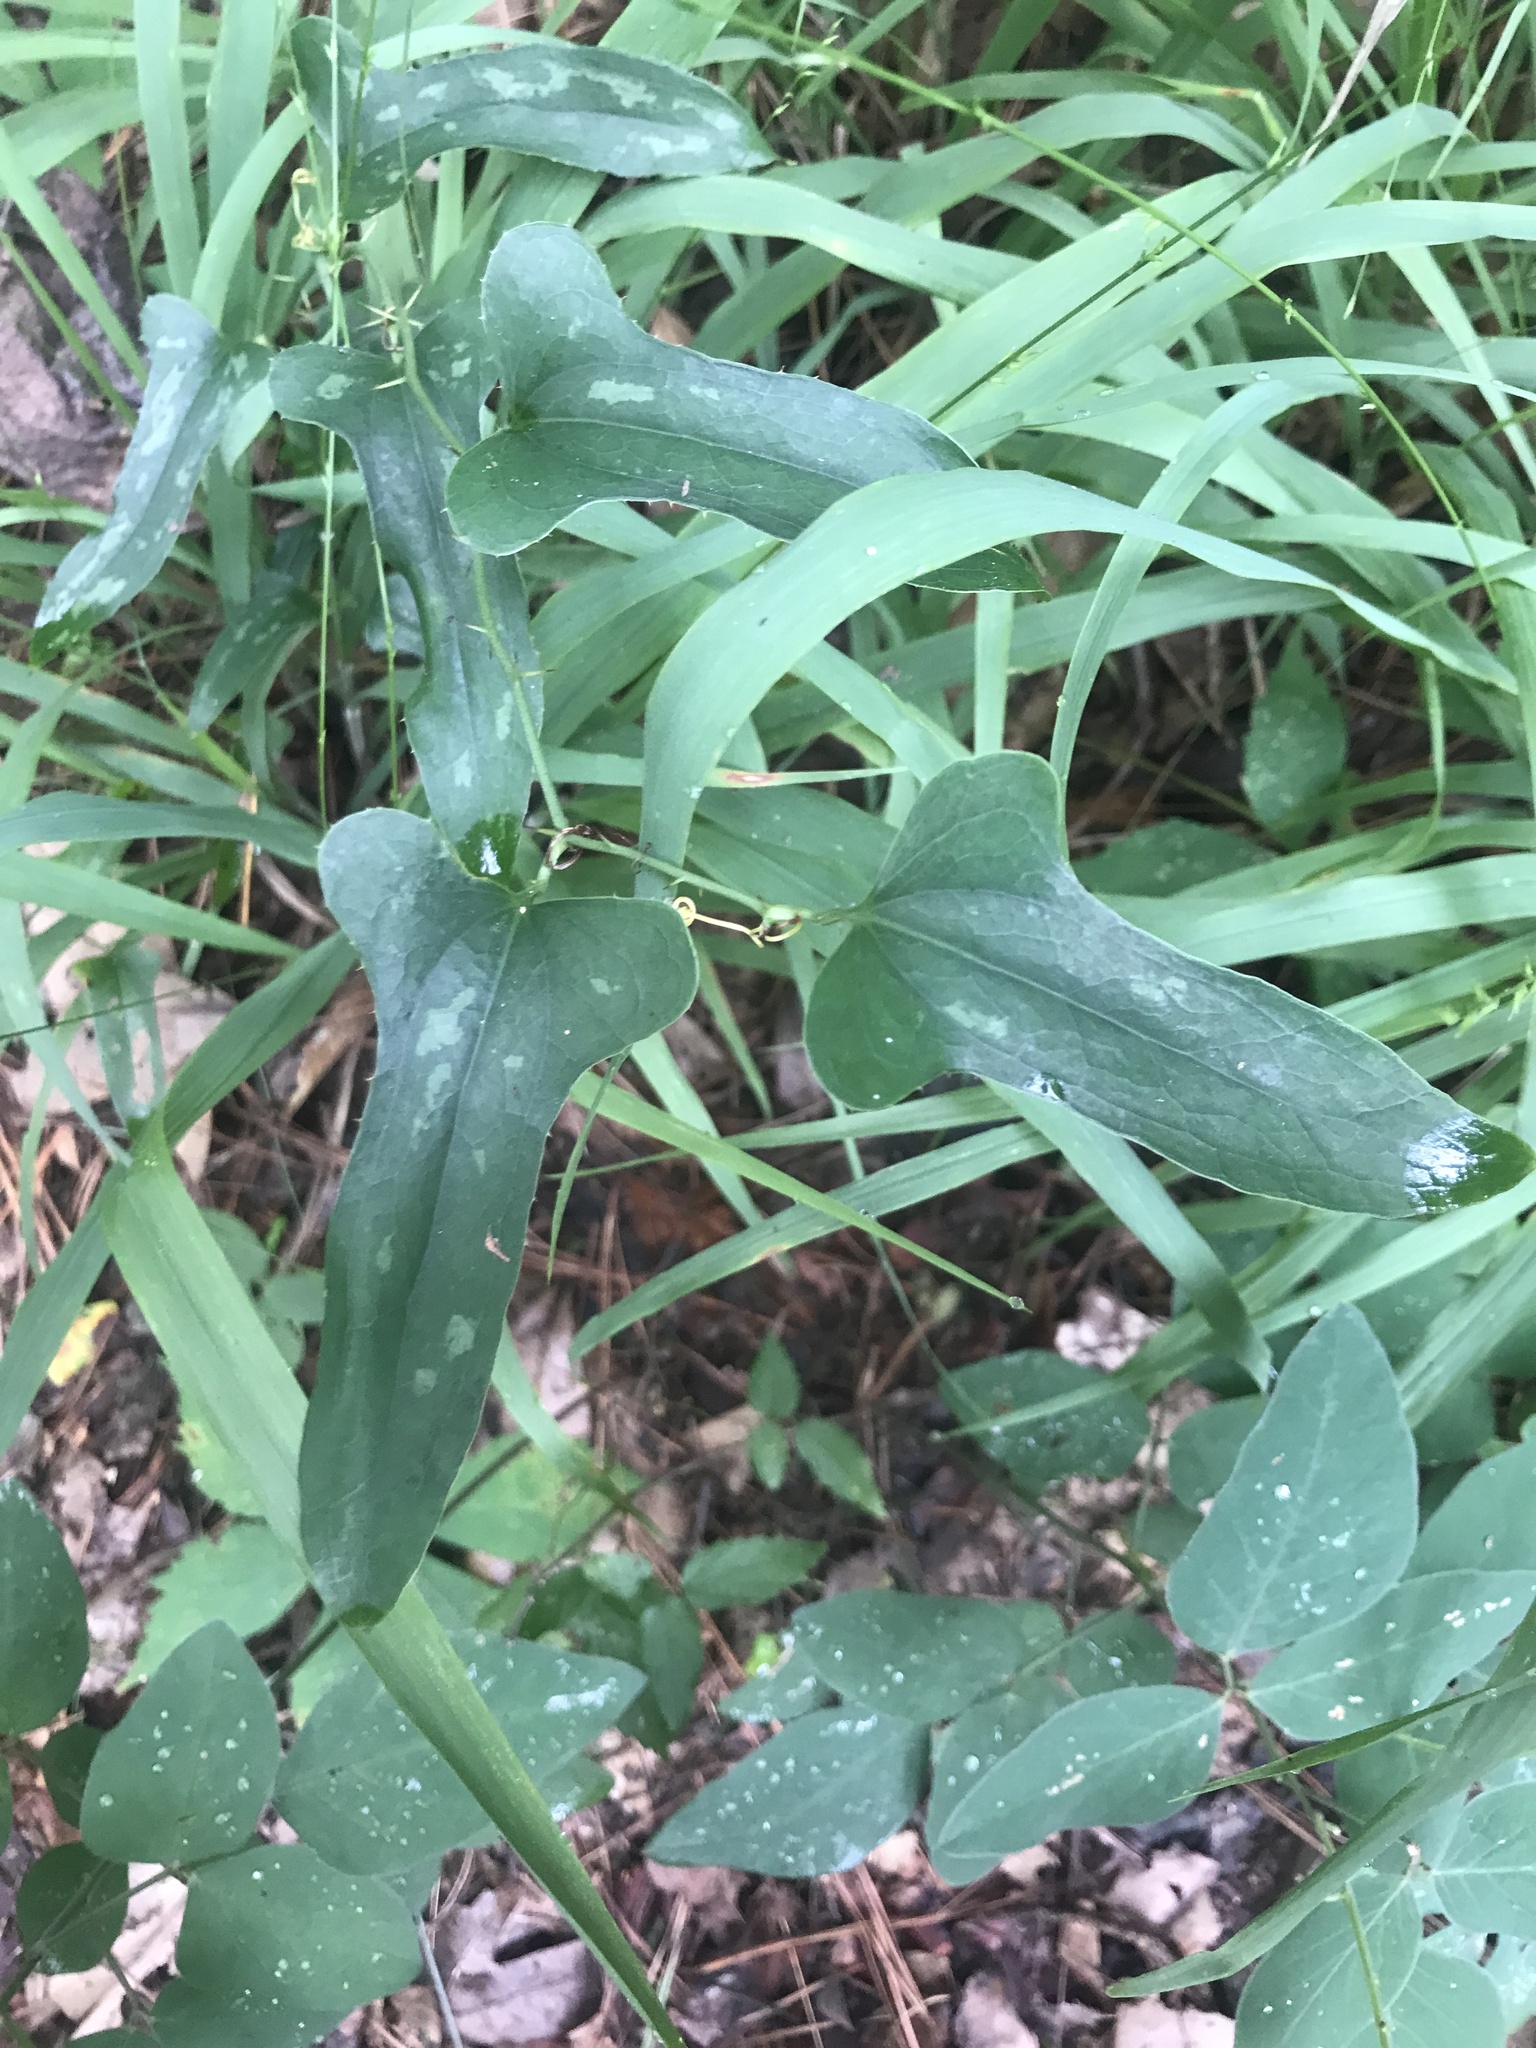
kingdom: Plantae
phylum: Tracheophyta
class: Liliopsida
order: Liliales
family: Smilacaceae
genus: Smilax
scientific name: Smilax bona-nox
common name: Catbrier
